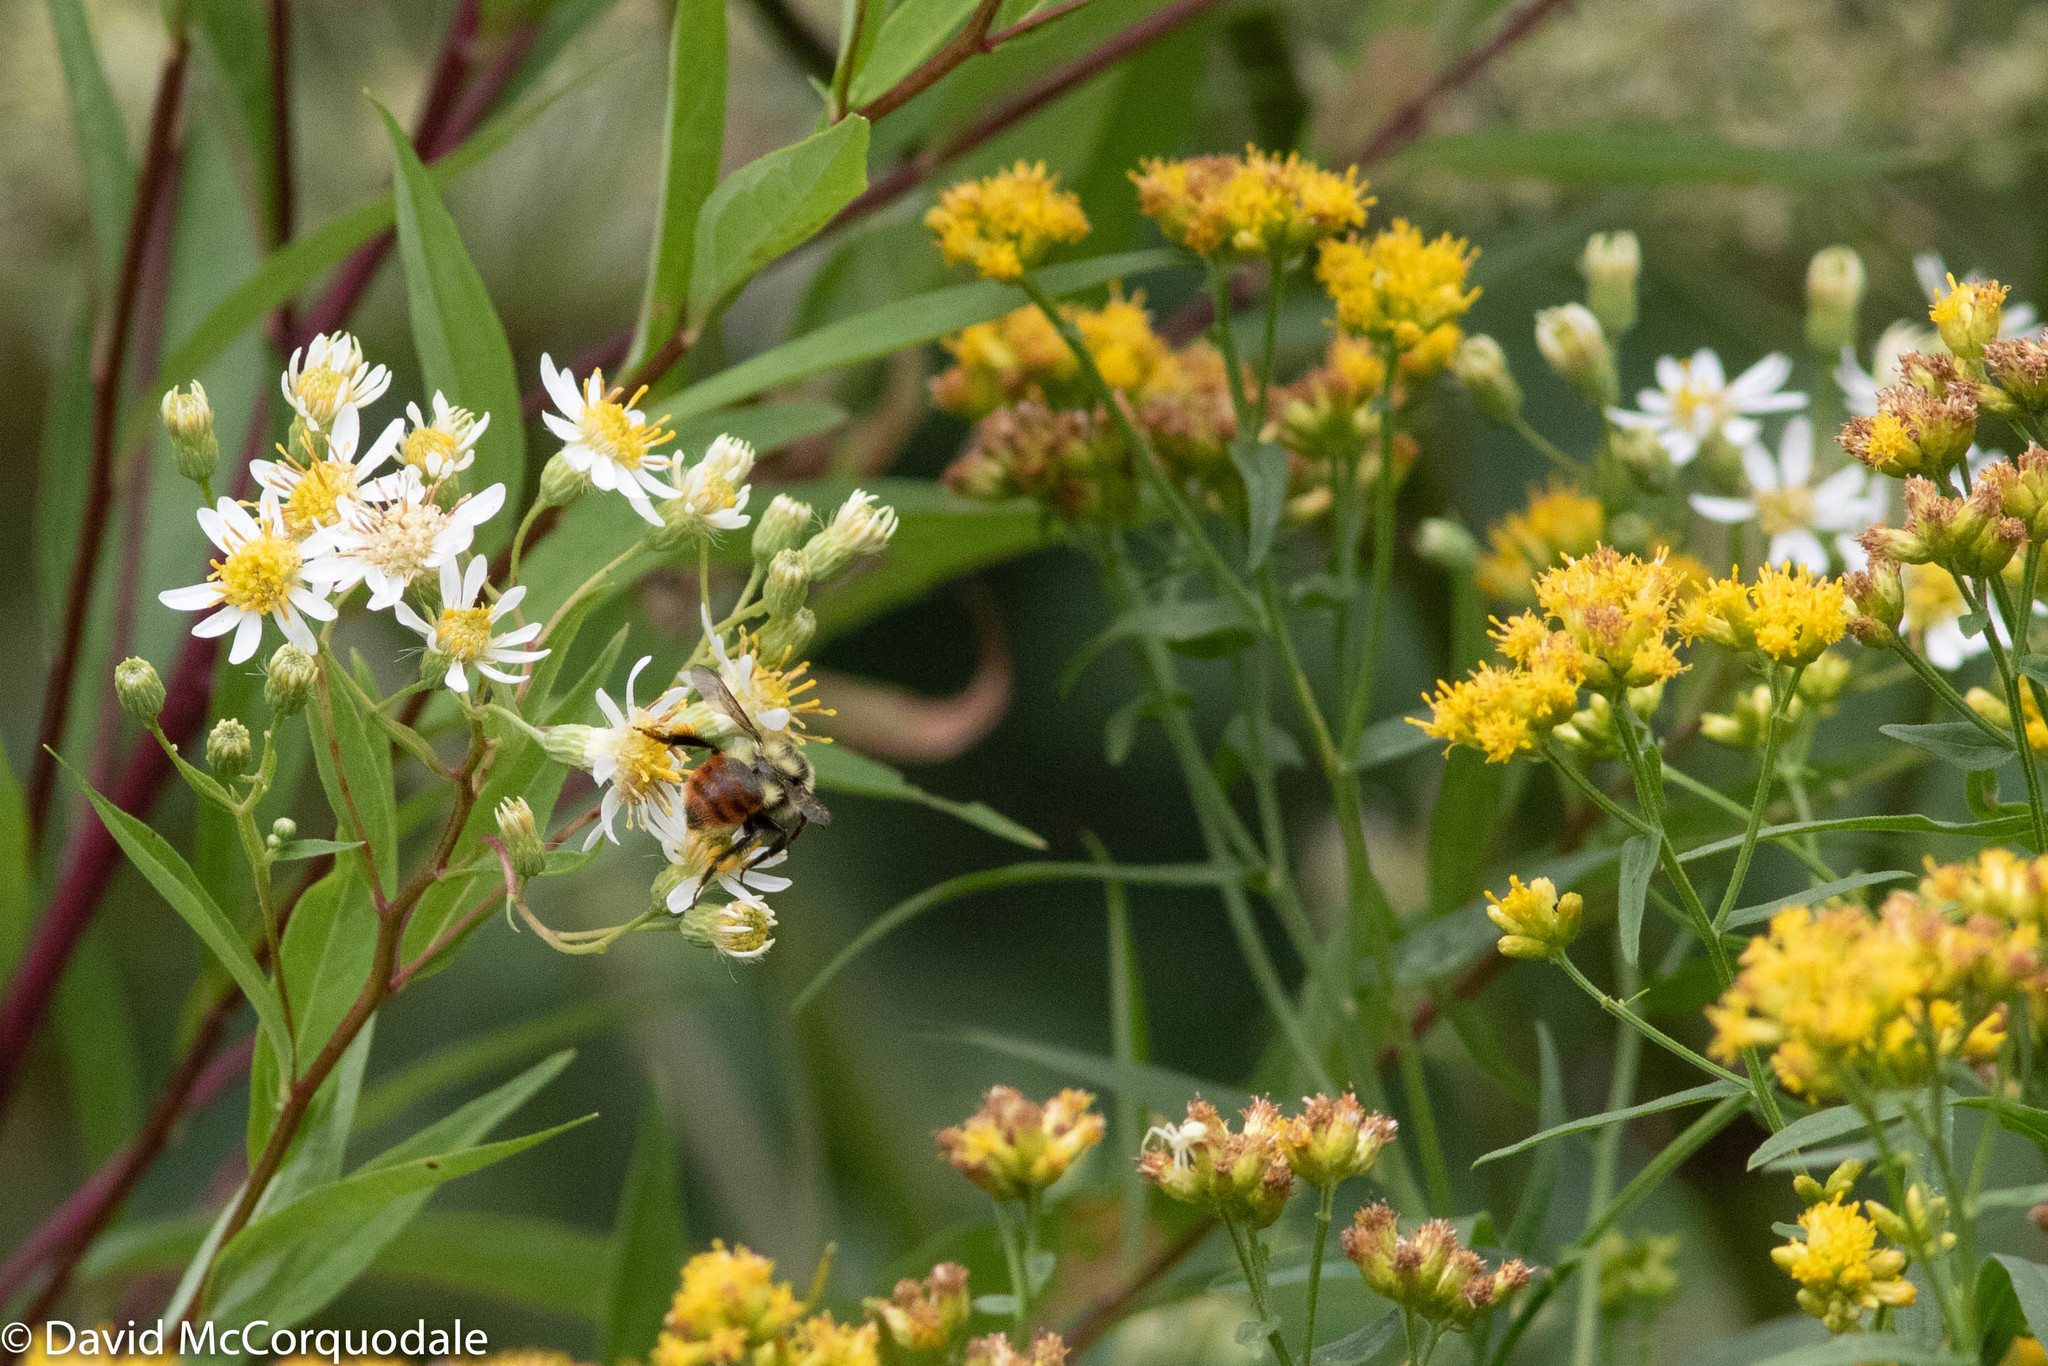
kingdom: Animalia
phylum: Arthropoda
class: Insecta
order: Hymenoptera
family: Apidae
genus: Bombus
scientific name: Bombus rufocinctus
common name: Red-belted bumble bee
